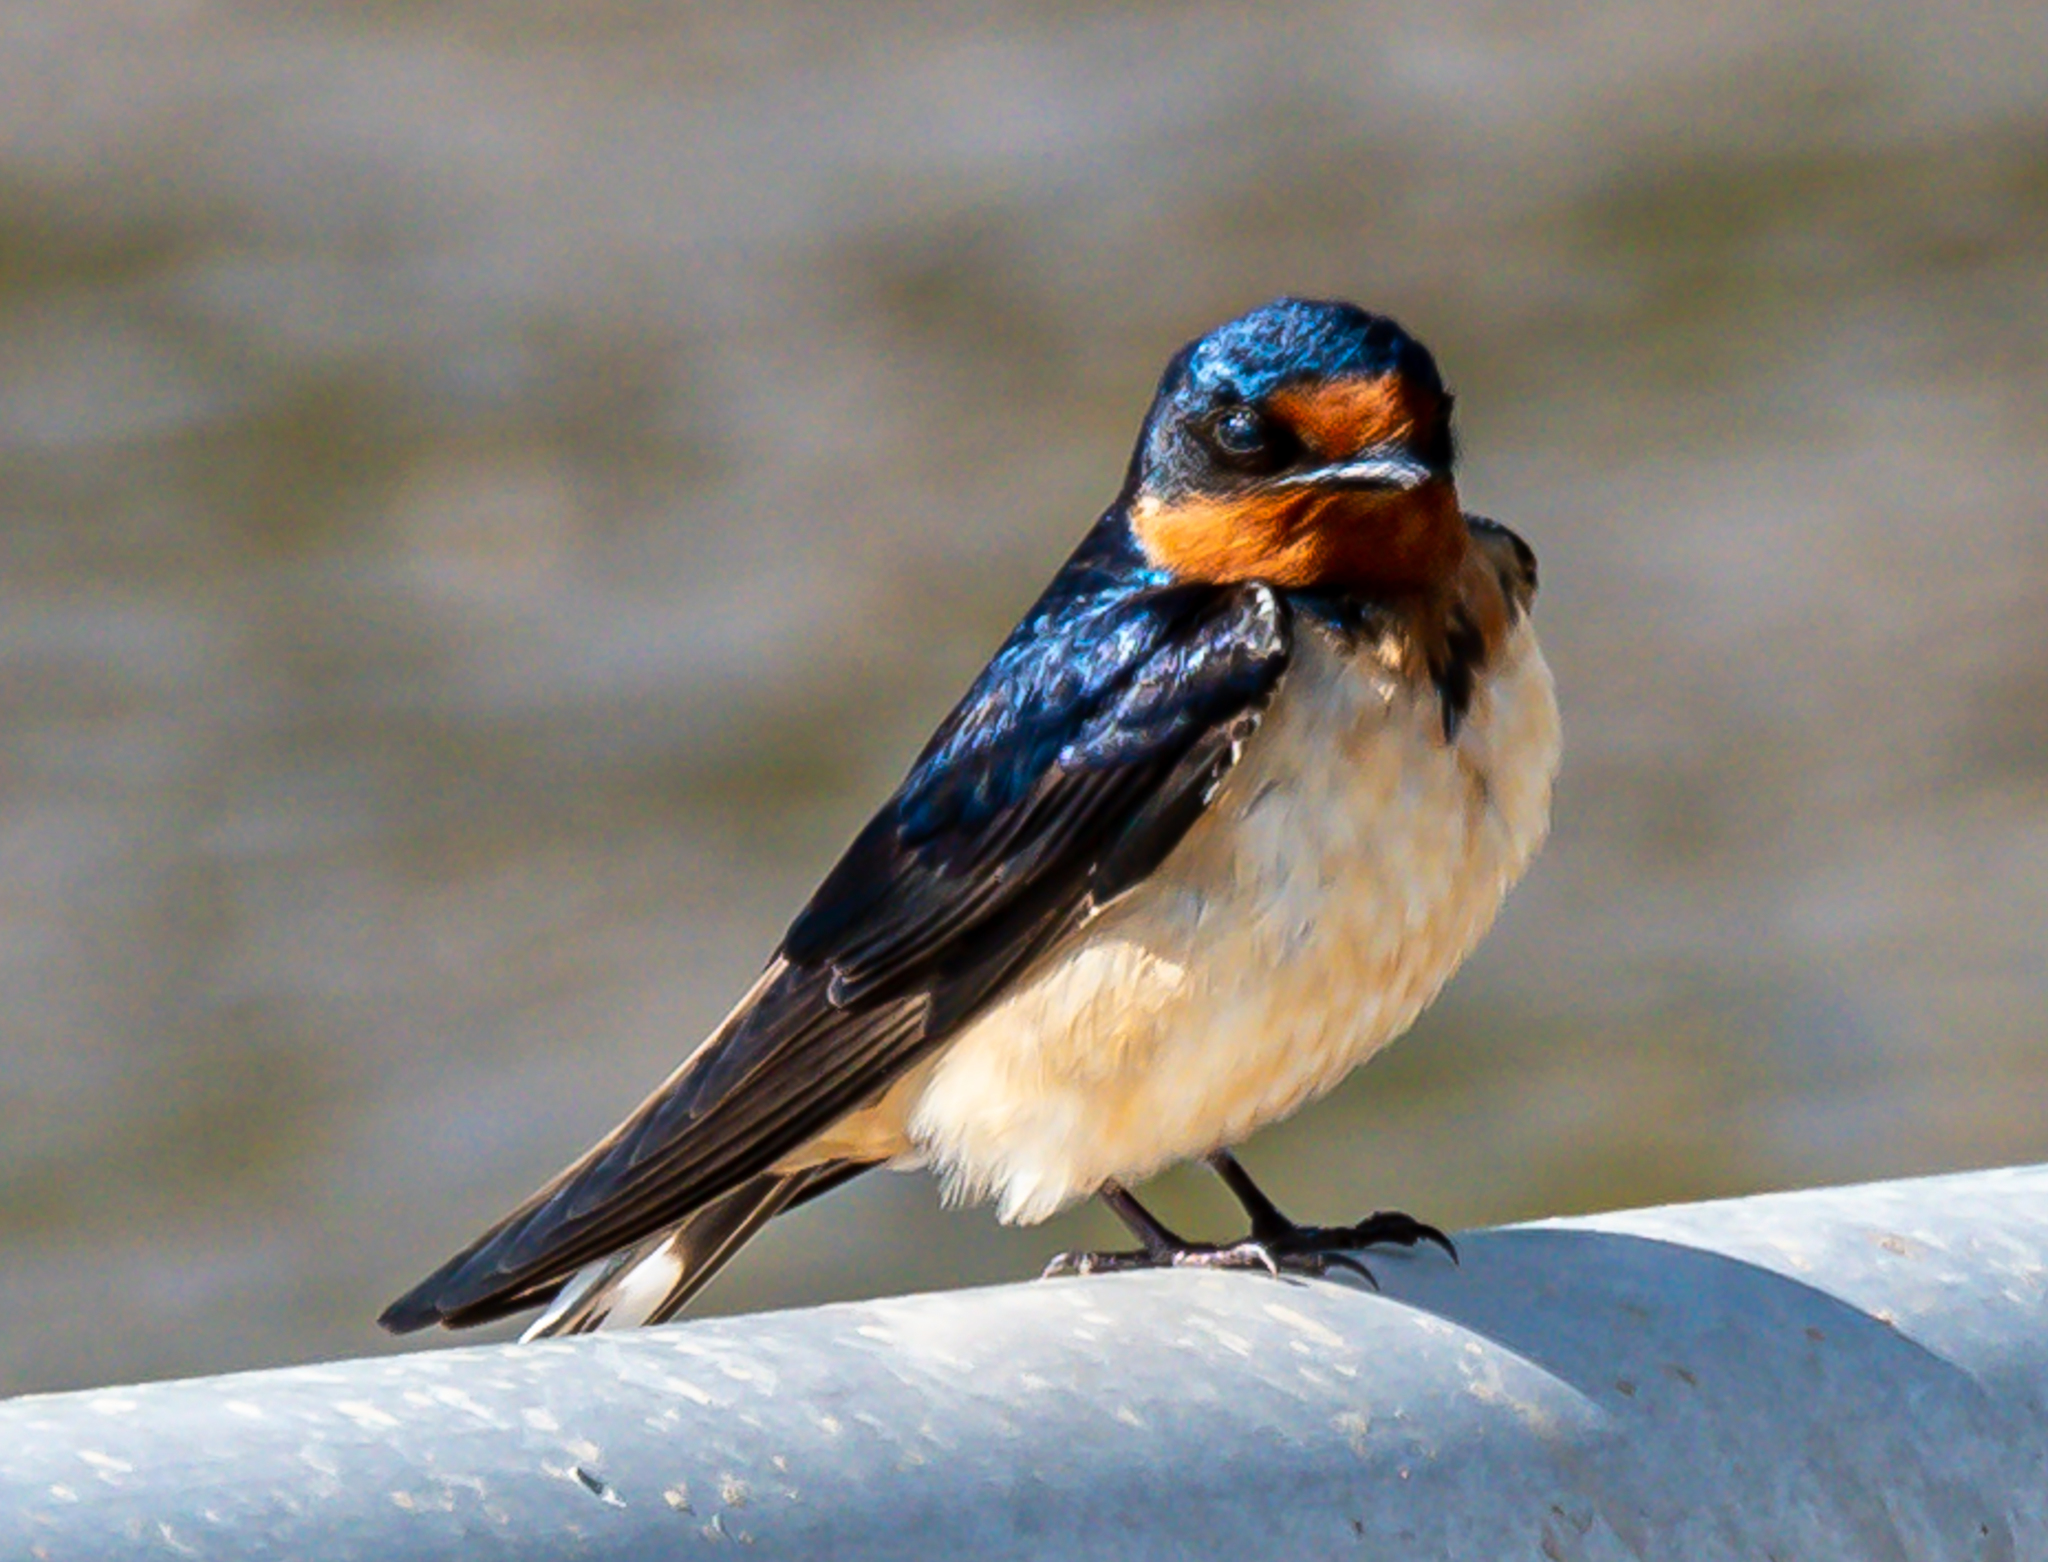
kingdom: Animalia
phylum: Chordata
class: Aves
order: Passeriformes
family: Hirundinidae
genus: Hirundo
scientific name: Hirundo rustica
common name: Barn swallow
